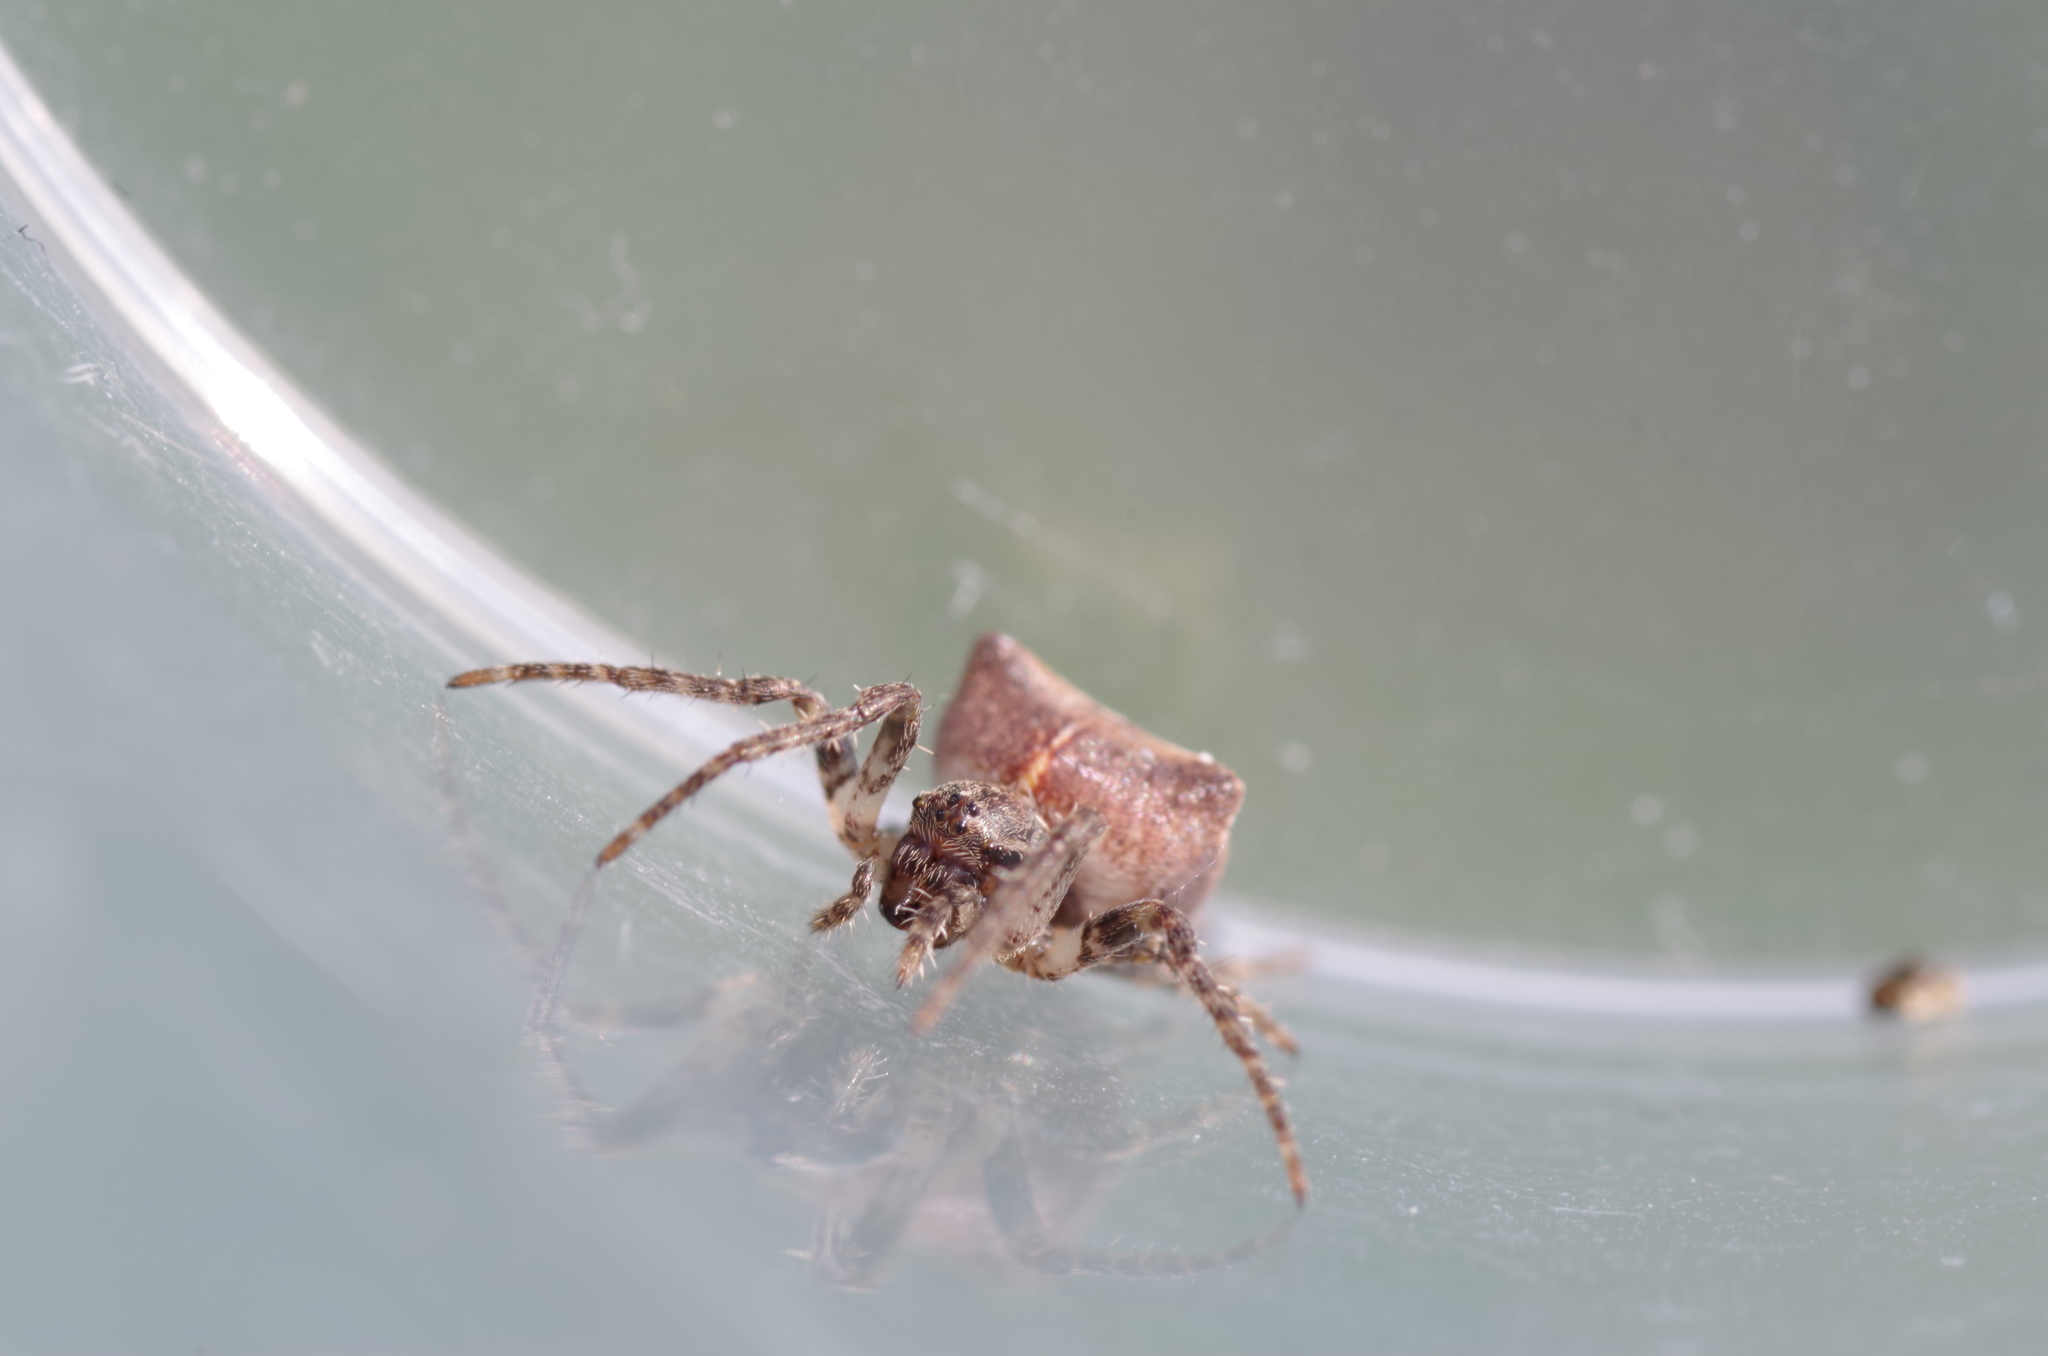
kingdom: Animalia
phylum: Arthropoda
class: Arachnida
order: Araneae
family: Araneidae
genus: Gibbaranea
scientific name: Gibbaranea bituberculata
